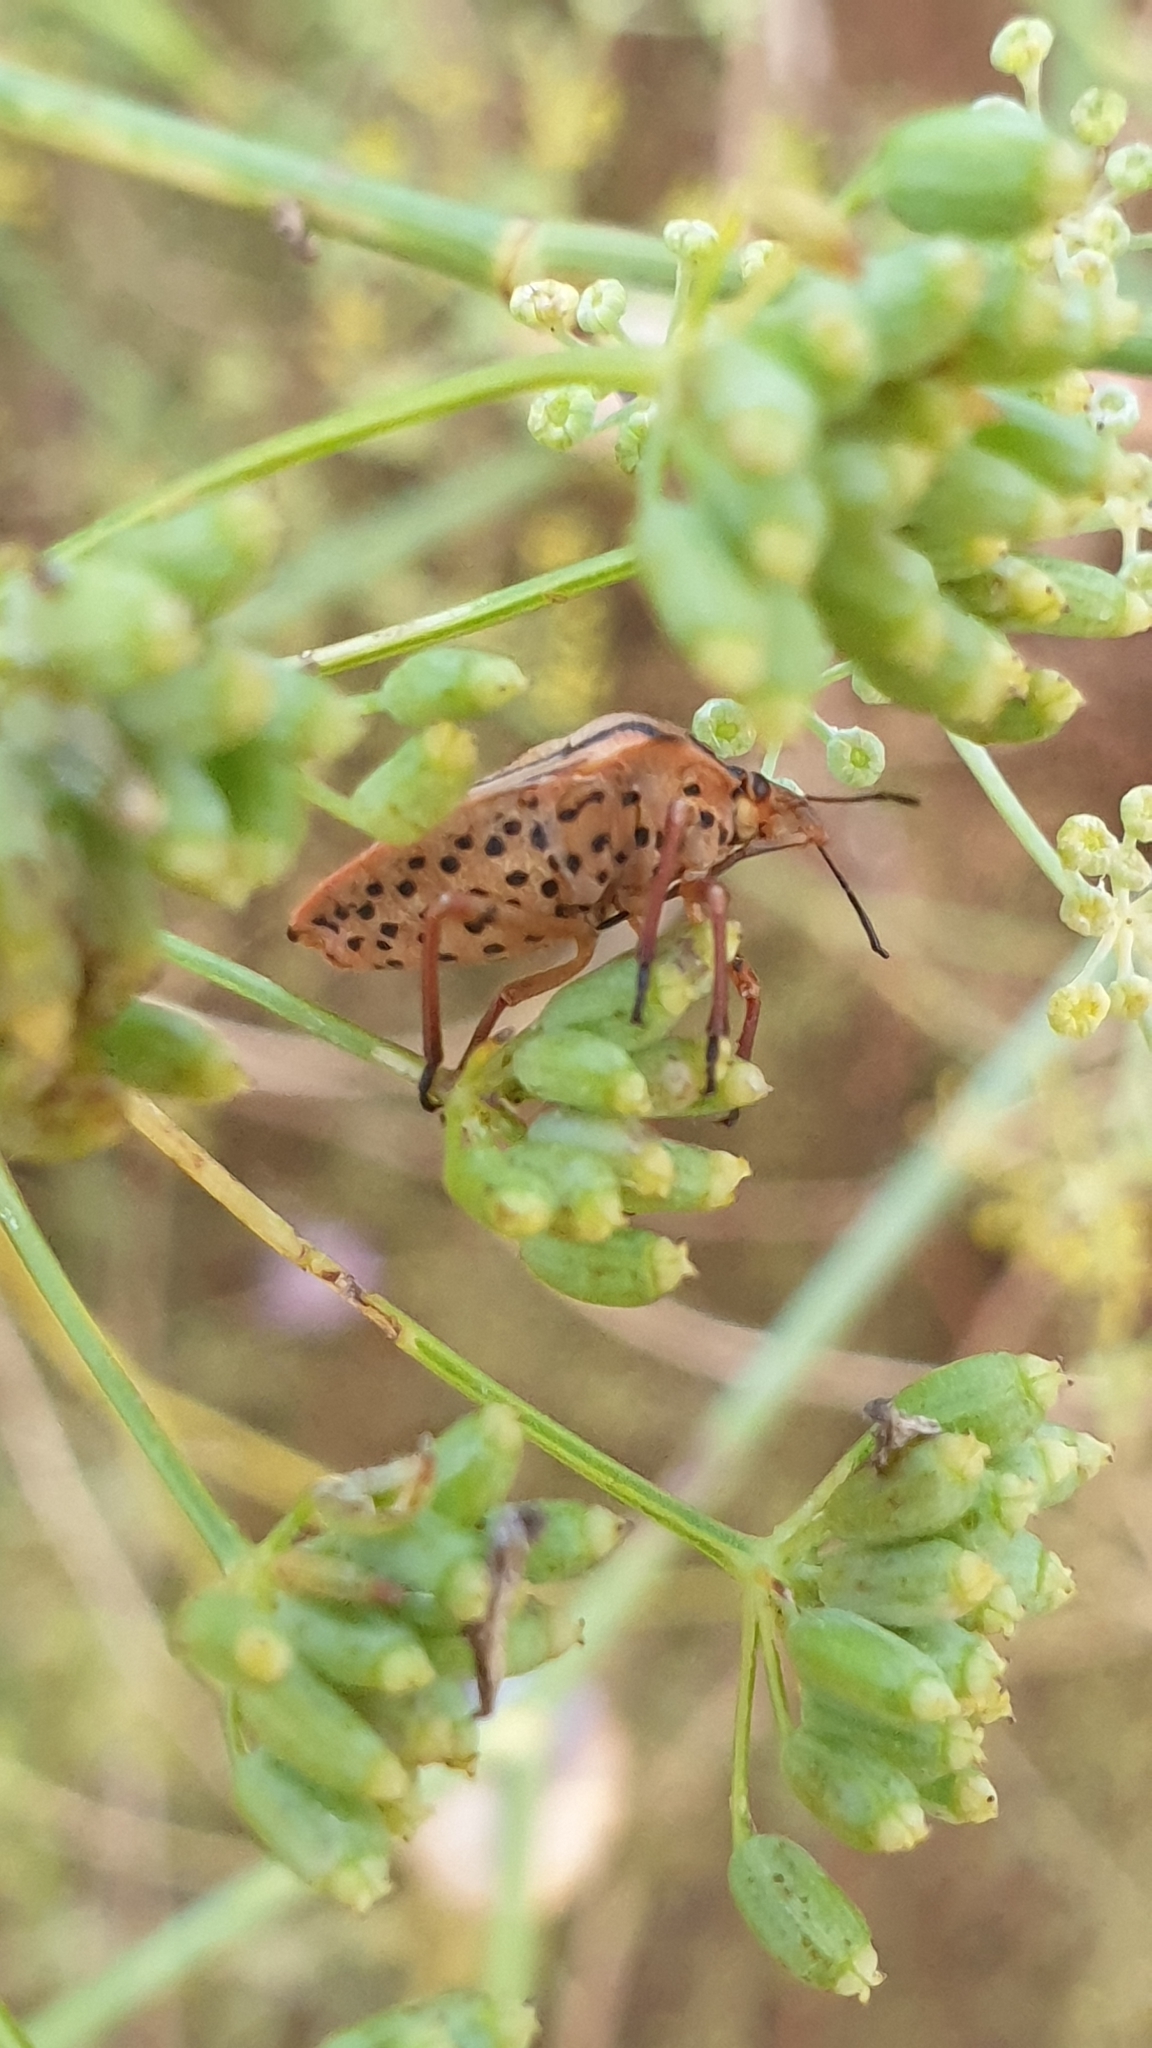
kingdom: Animalia
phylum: Arthropoda
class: Insecta
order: Hemiptera
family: Pentatomidae
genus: Graphosoma
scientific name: Graphosoma semipunctatum
